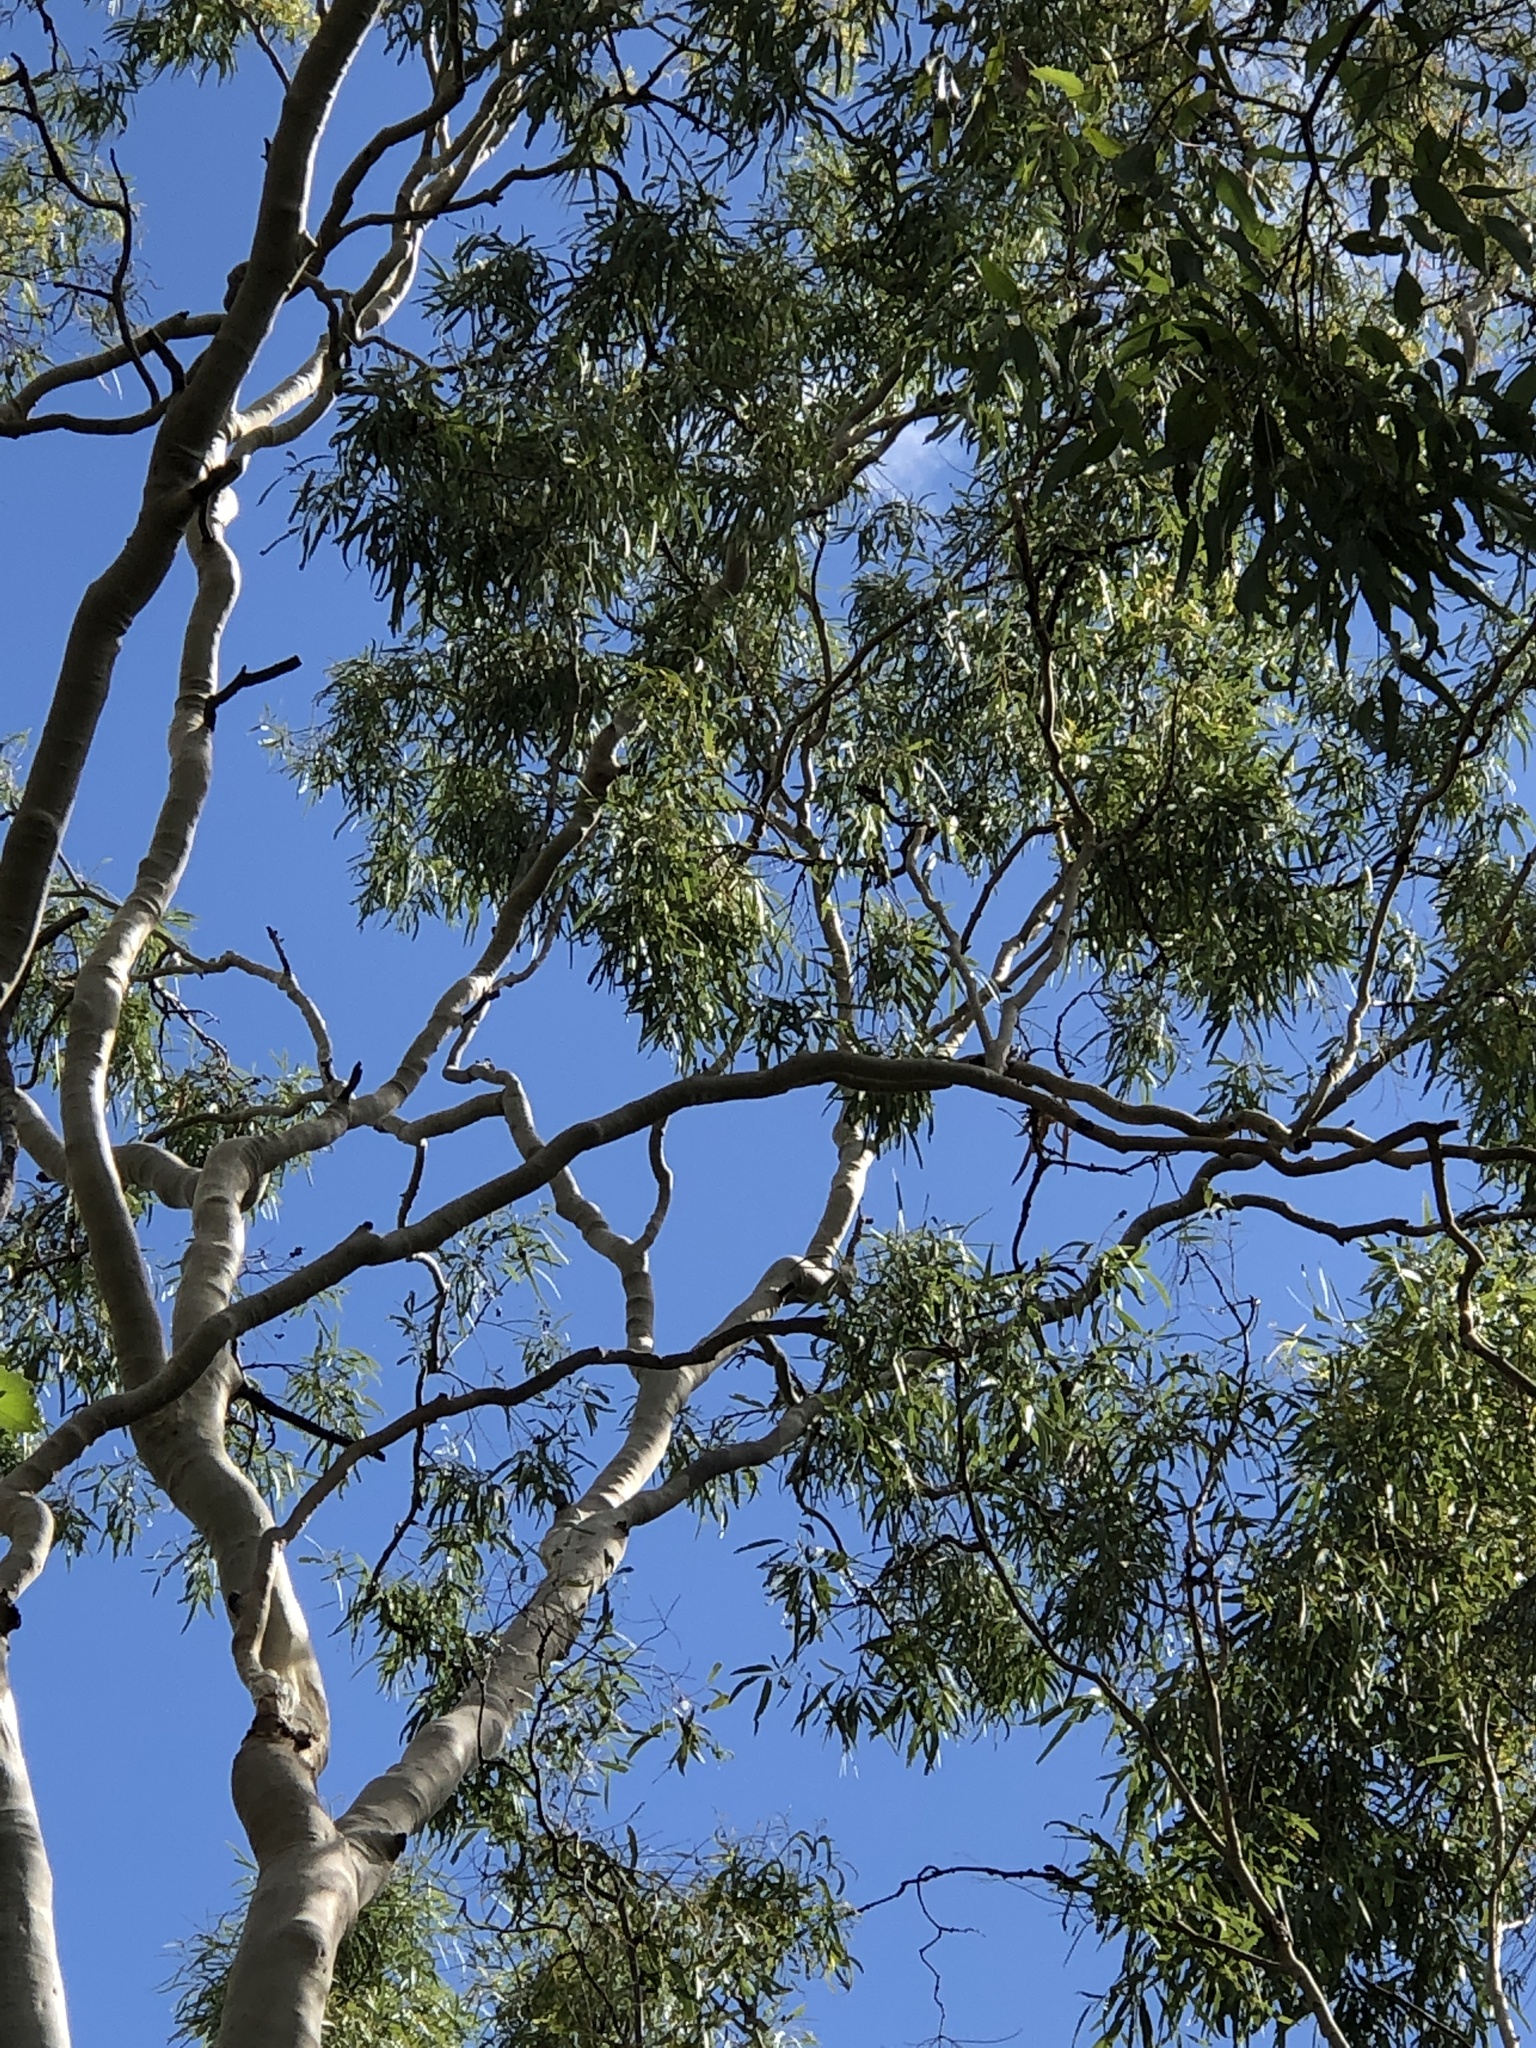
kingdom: Plantae
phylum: Tracheophyta
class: Magnoliopsida
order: Myrtales
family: Myrtaceae
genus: Corymbia
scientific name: Corymbia tessellaris
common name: Carbeen
